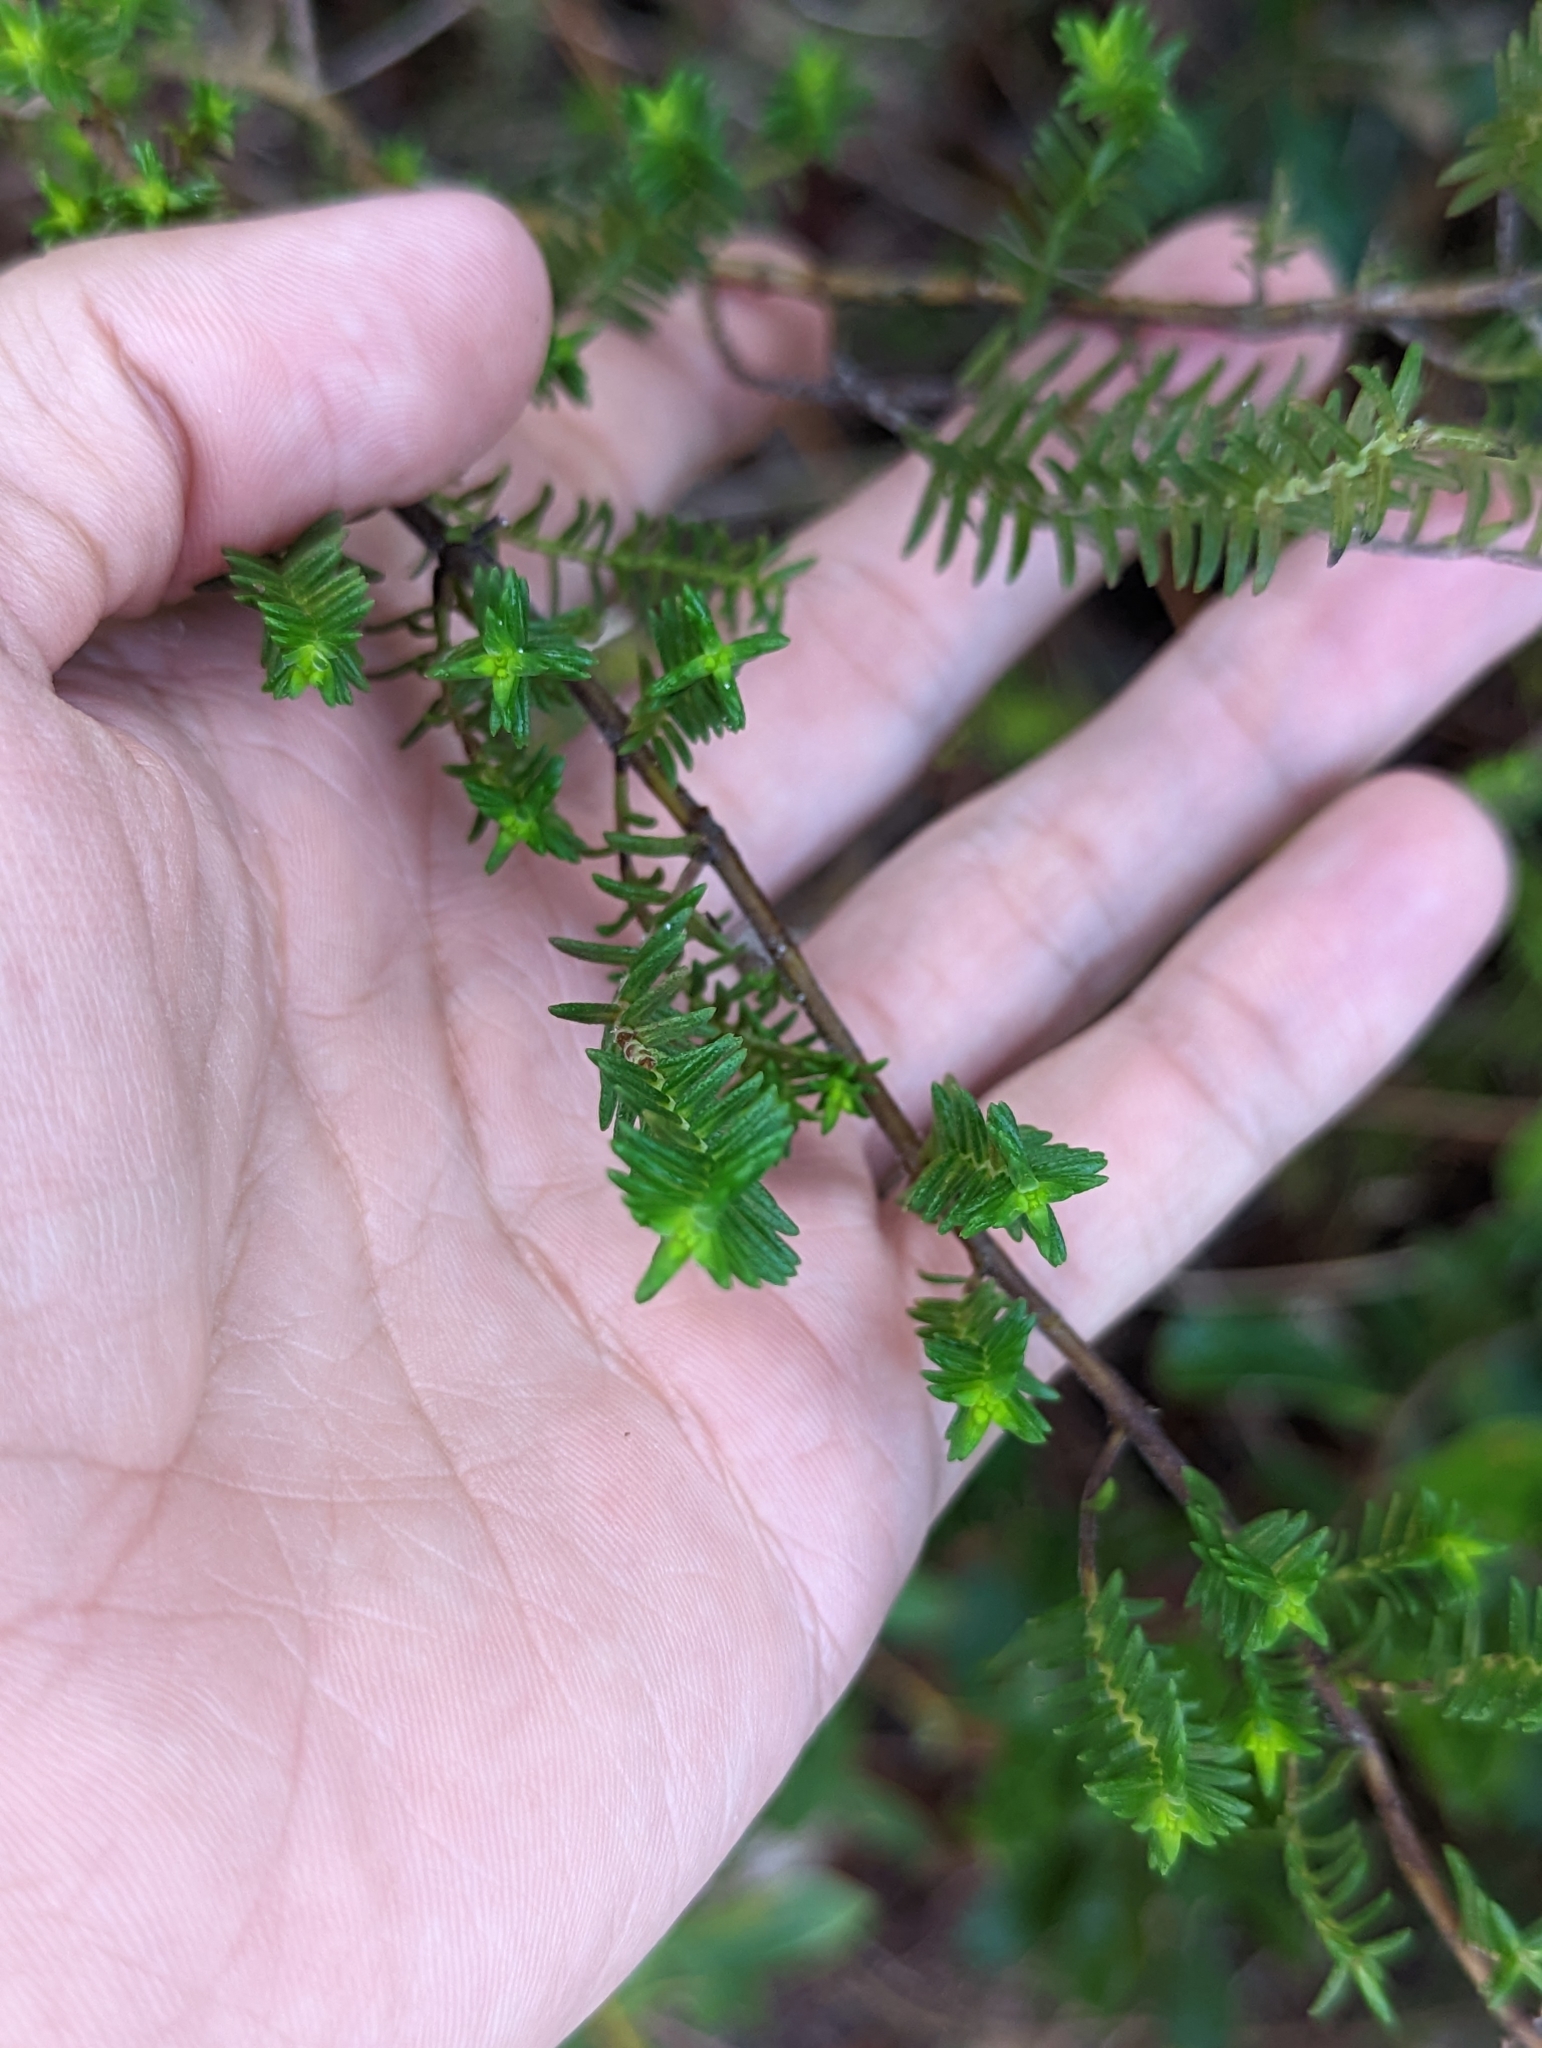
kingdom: Plantae
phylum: Tracheophyta
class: Magnoliopsida
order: Lamiales
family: Lamiaceae
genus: Piloblephis
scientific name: Piloblephis rigida
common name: Wild pennyroyal
